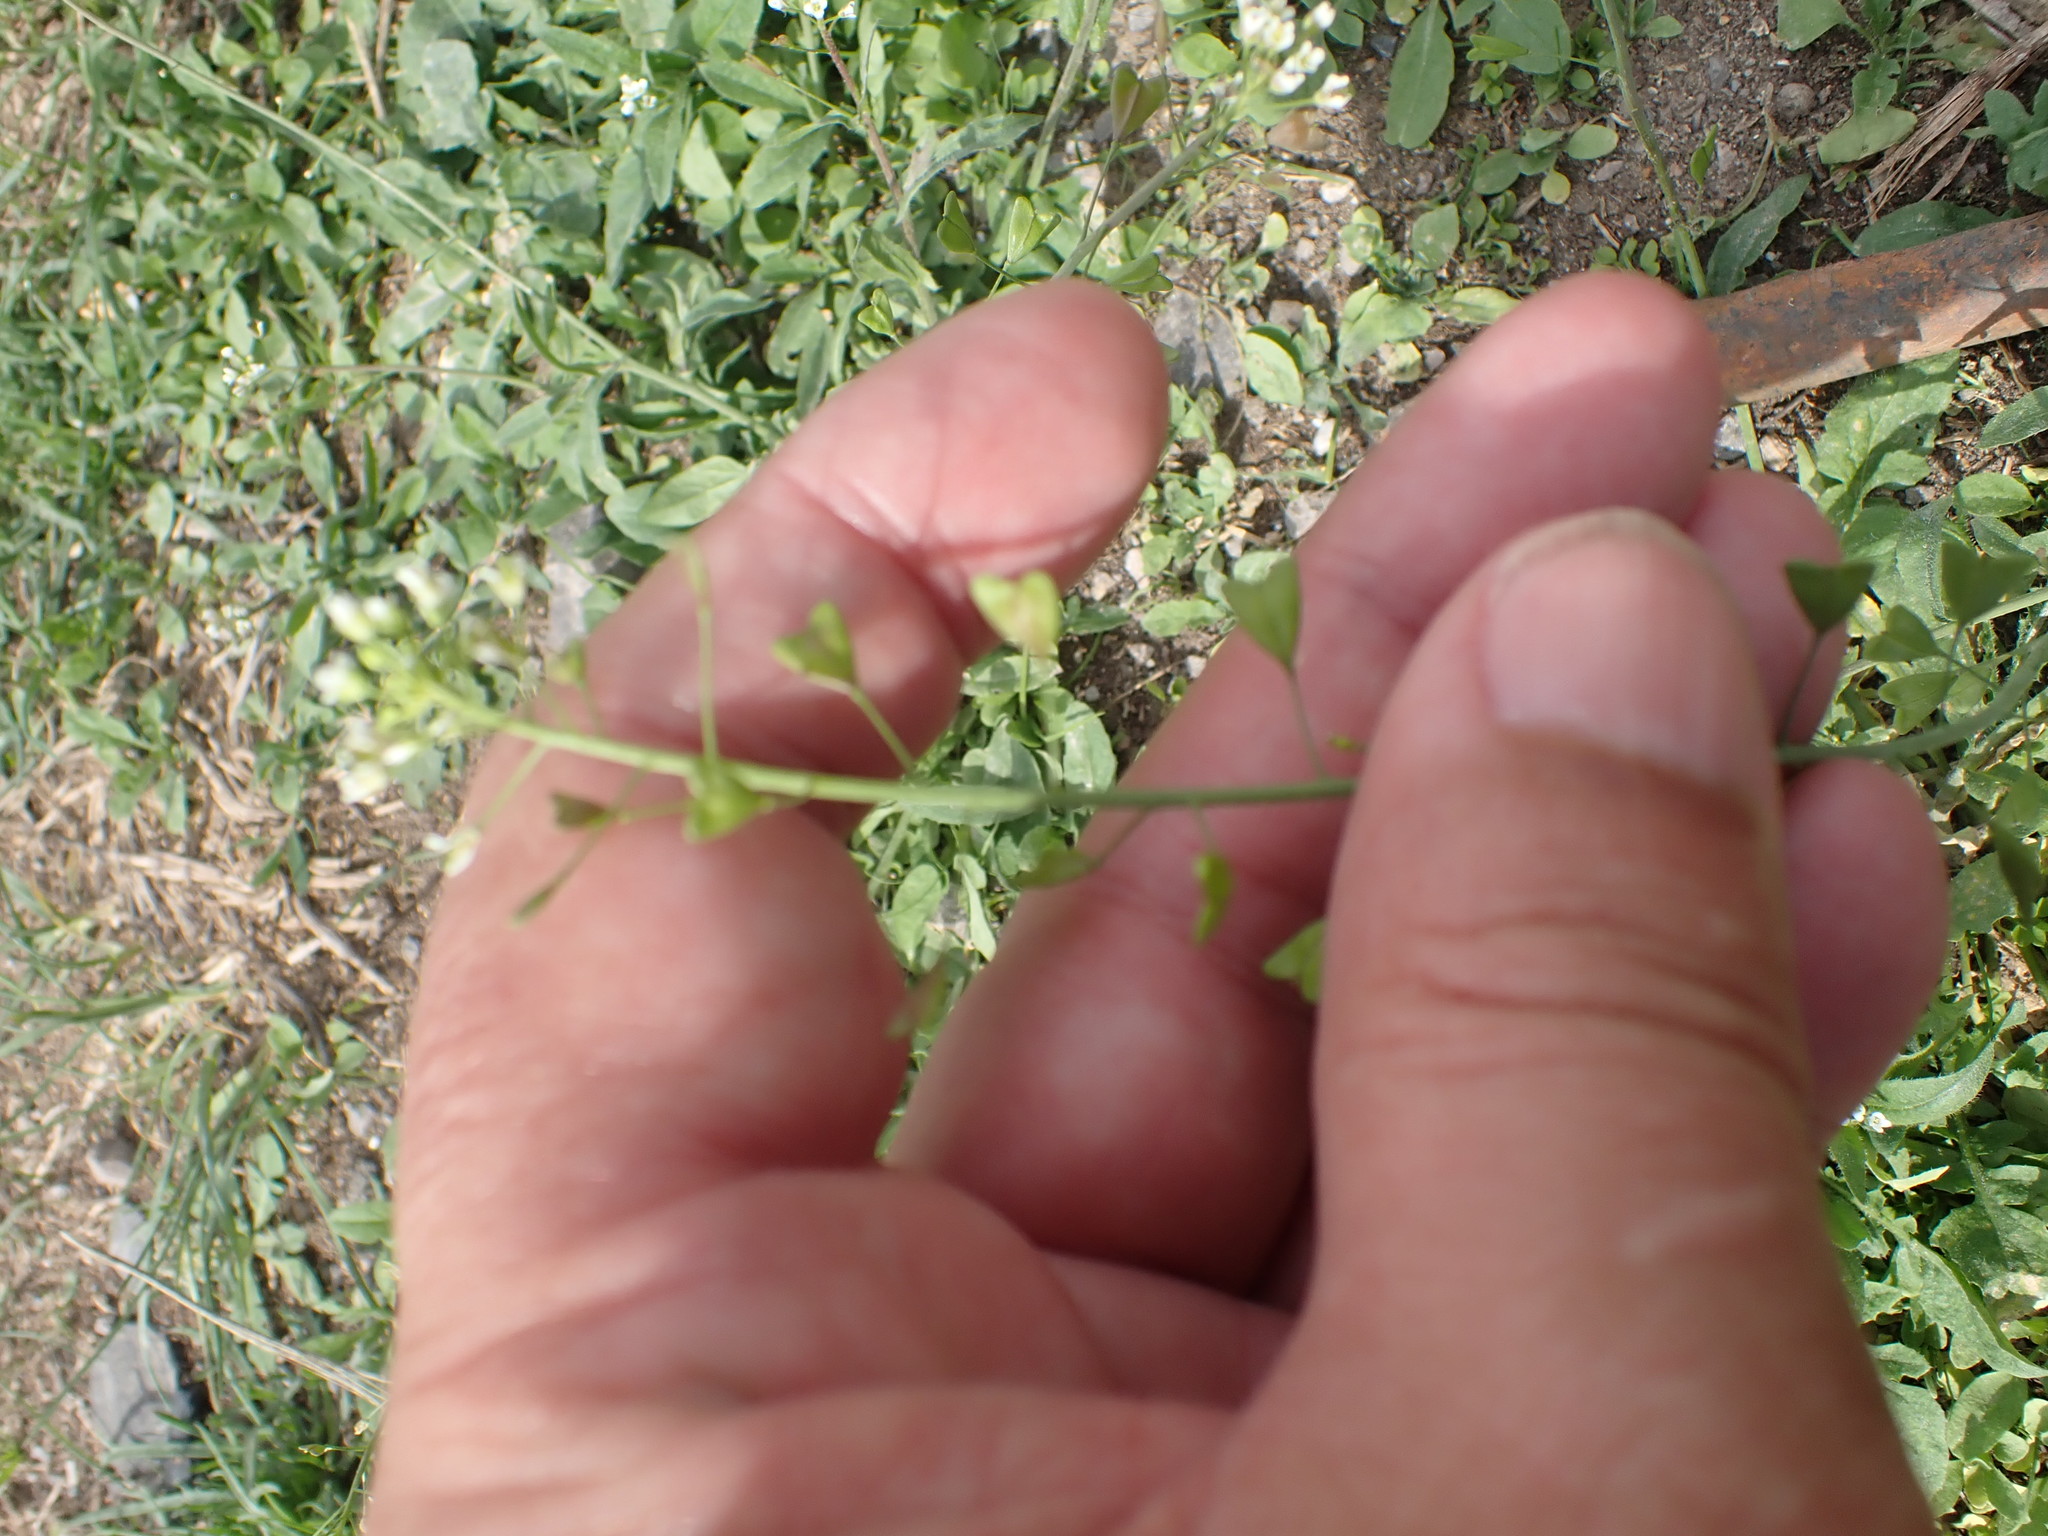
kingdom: Plantae
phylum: Tracheophyta
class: Magnoliopsida
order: Brassicales
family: Brassicaceae
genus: Capsella
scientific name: Capsella bursa-pastoris
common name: Shepherd's purse
